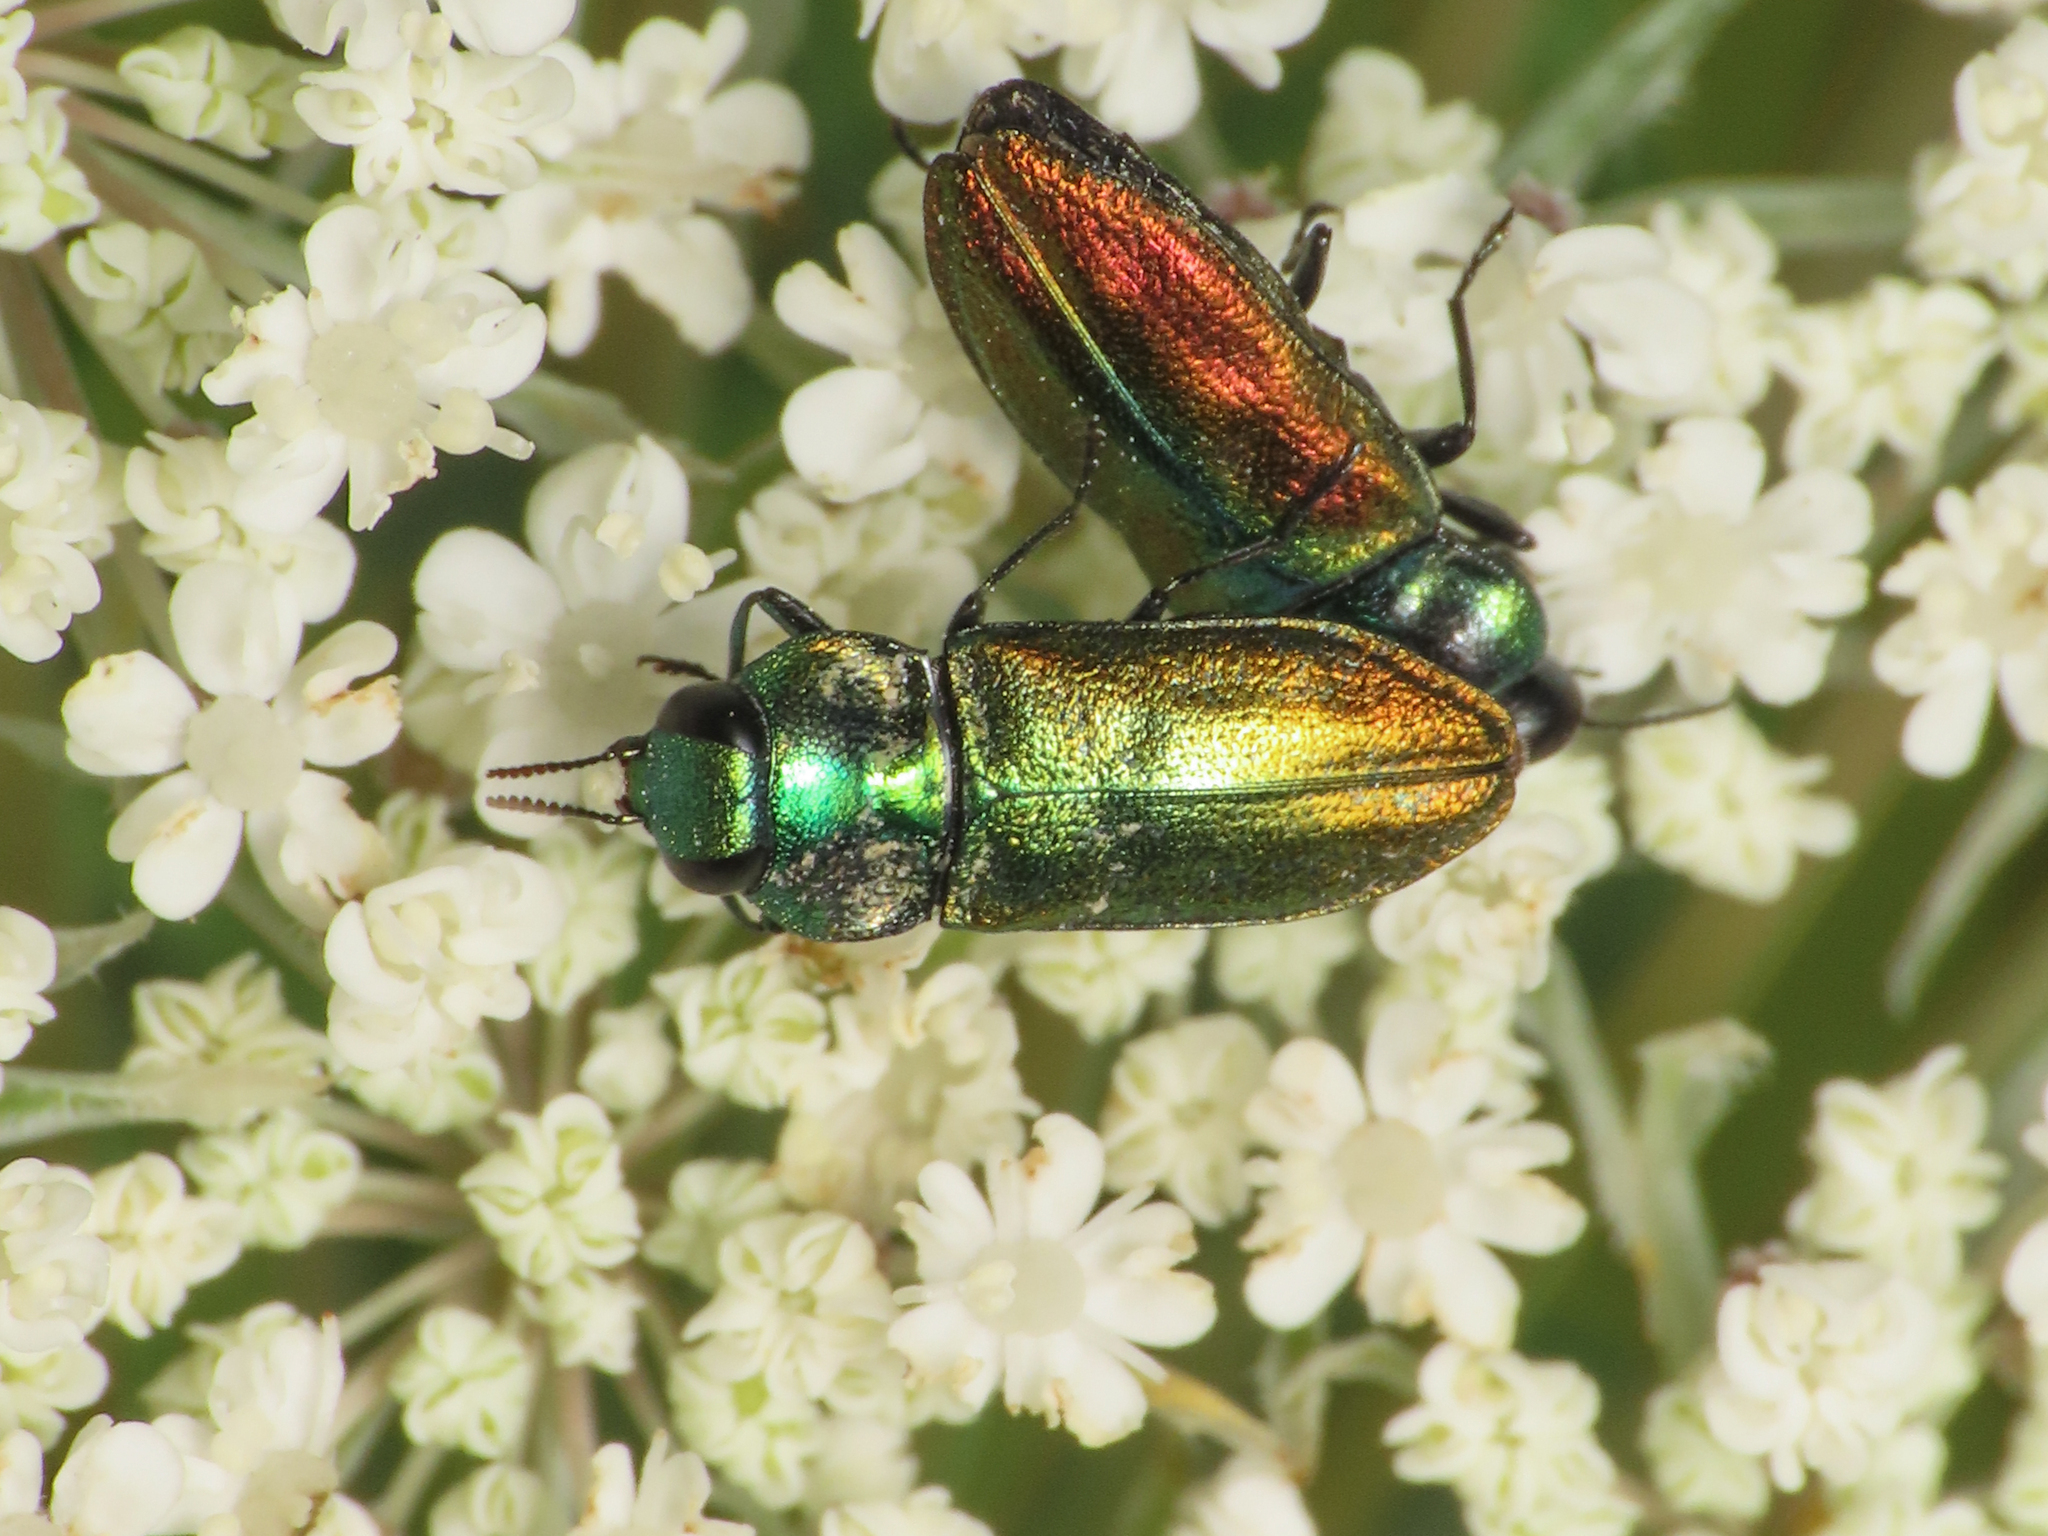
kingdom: Animalia
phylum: Arthropoda
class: Insecta
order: Coleoptera
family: Buprestidae
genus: Anthaxia
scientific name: Anthaxia thalassophila
